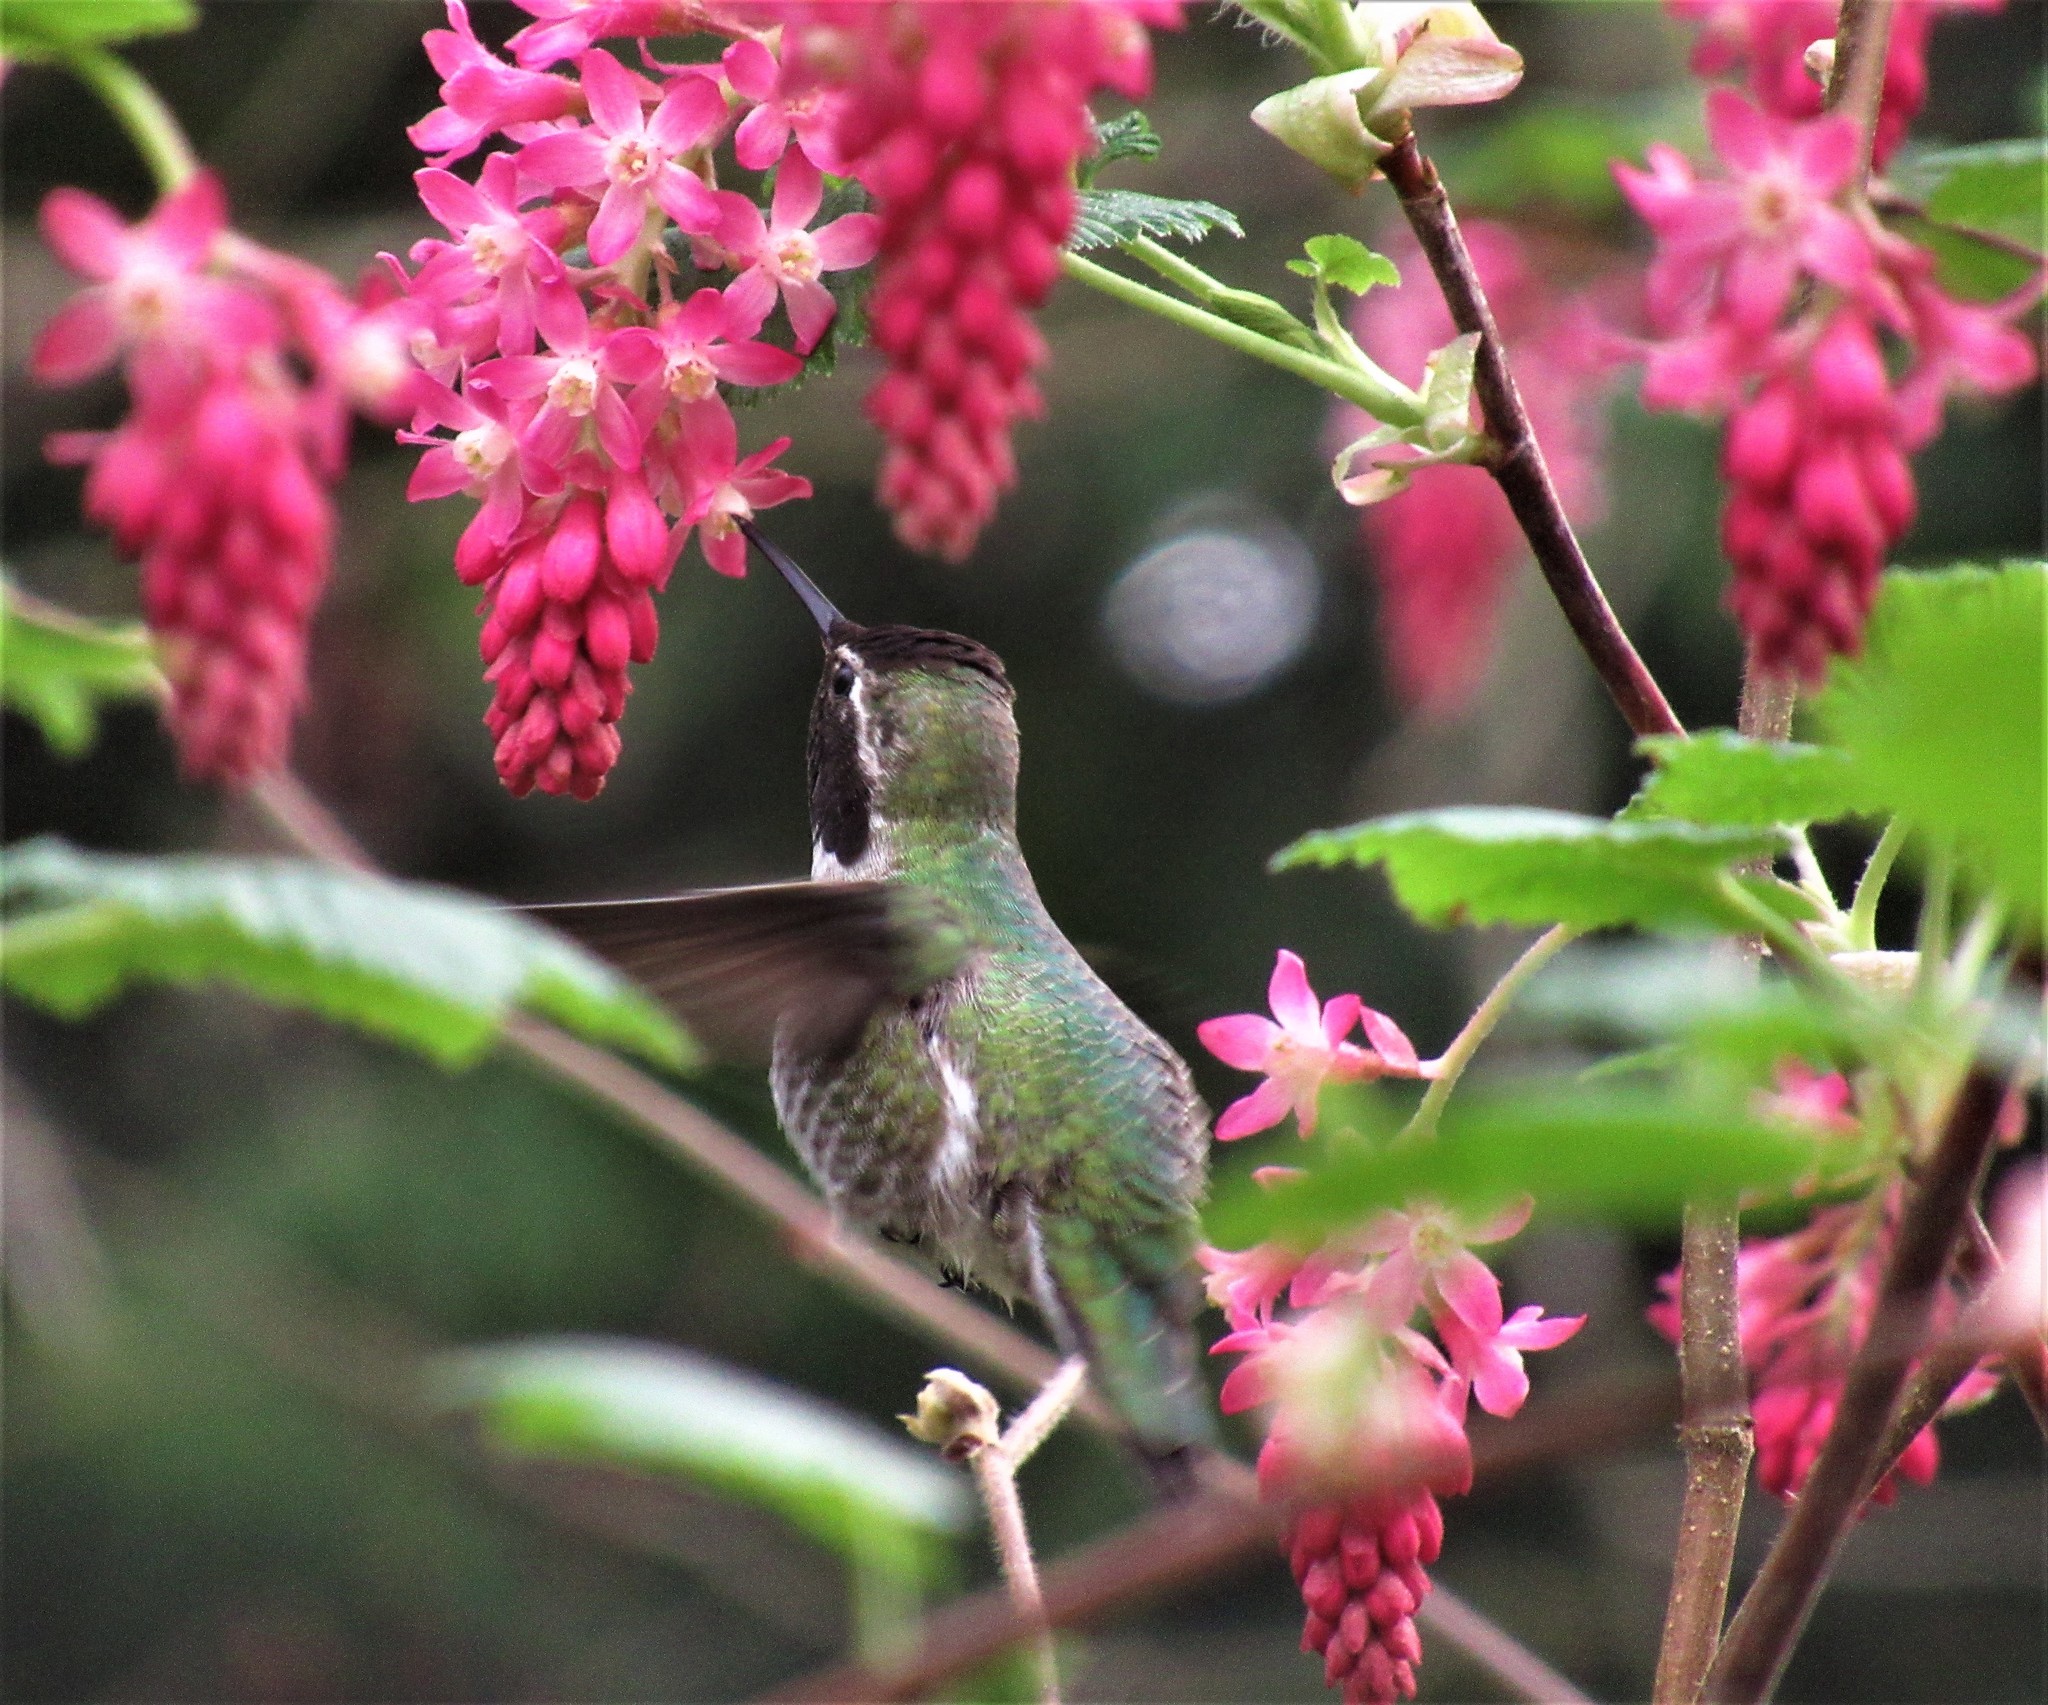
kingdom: Animalia
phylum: Chordata
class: Aves
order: Apodiformes
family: Trochilidae
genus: Calypte
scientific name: Calypte anna
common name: Anna's hummingbird
